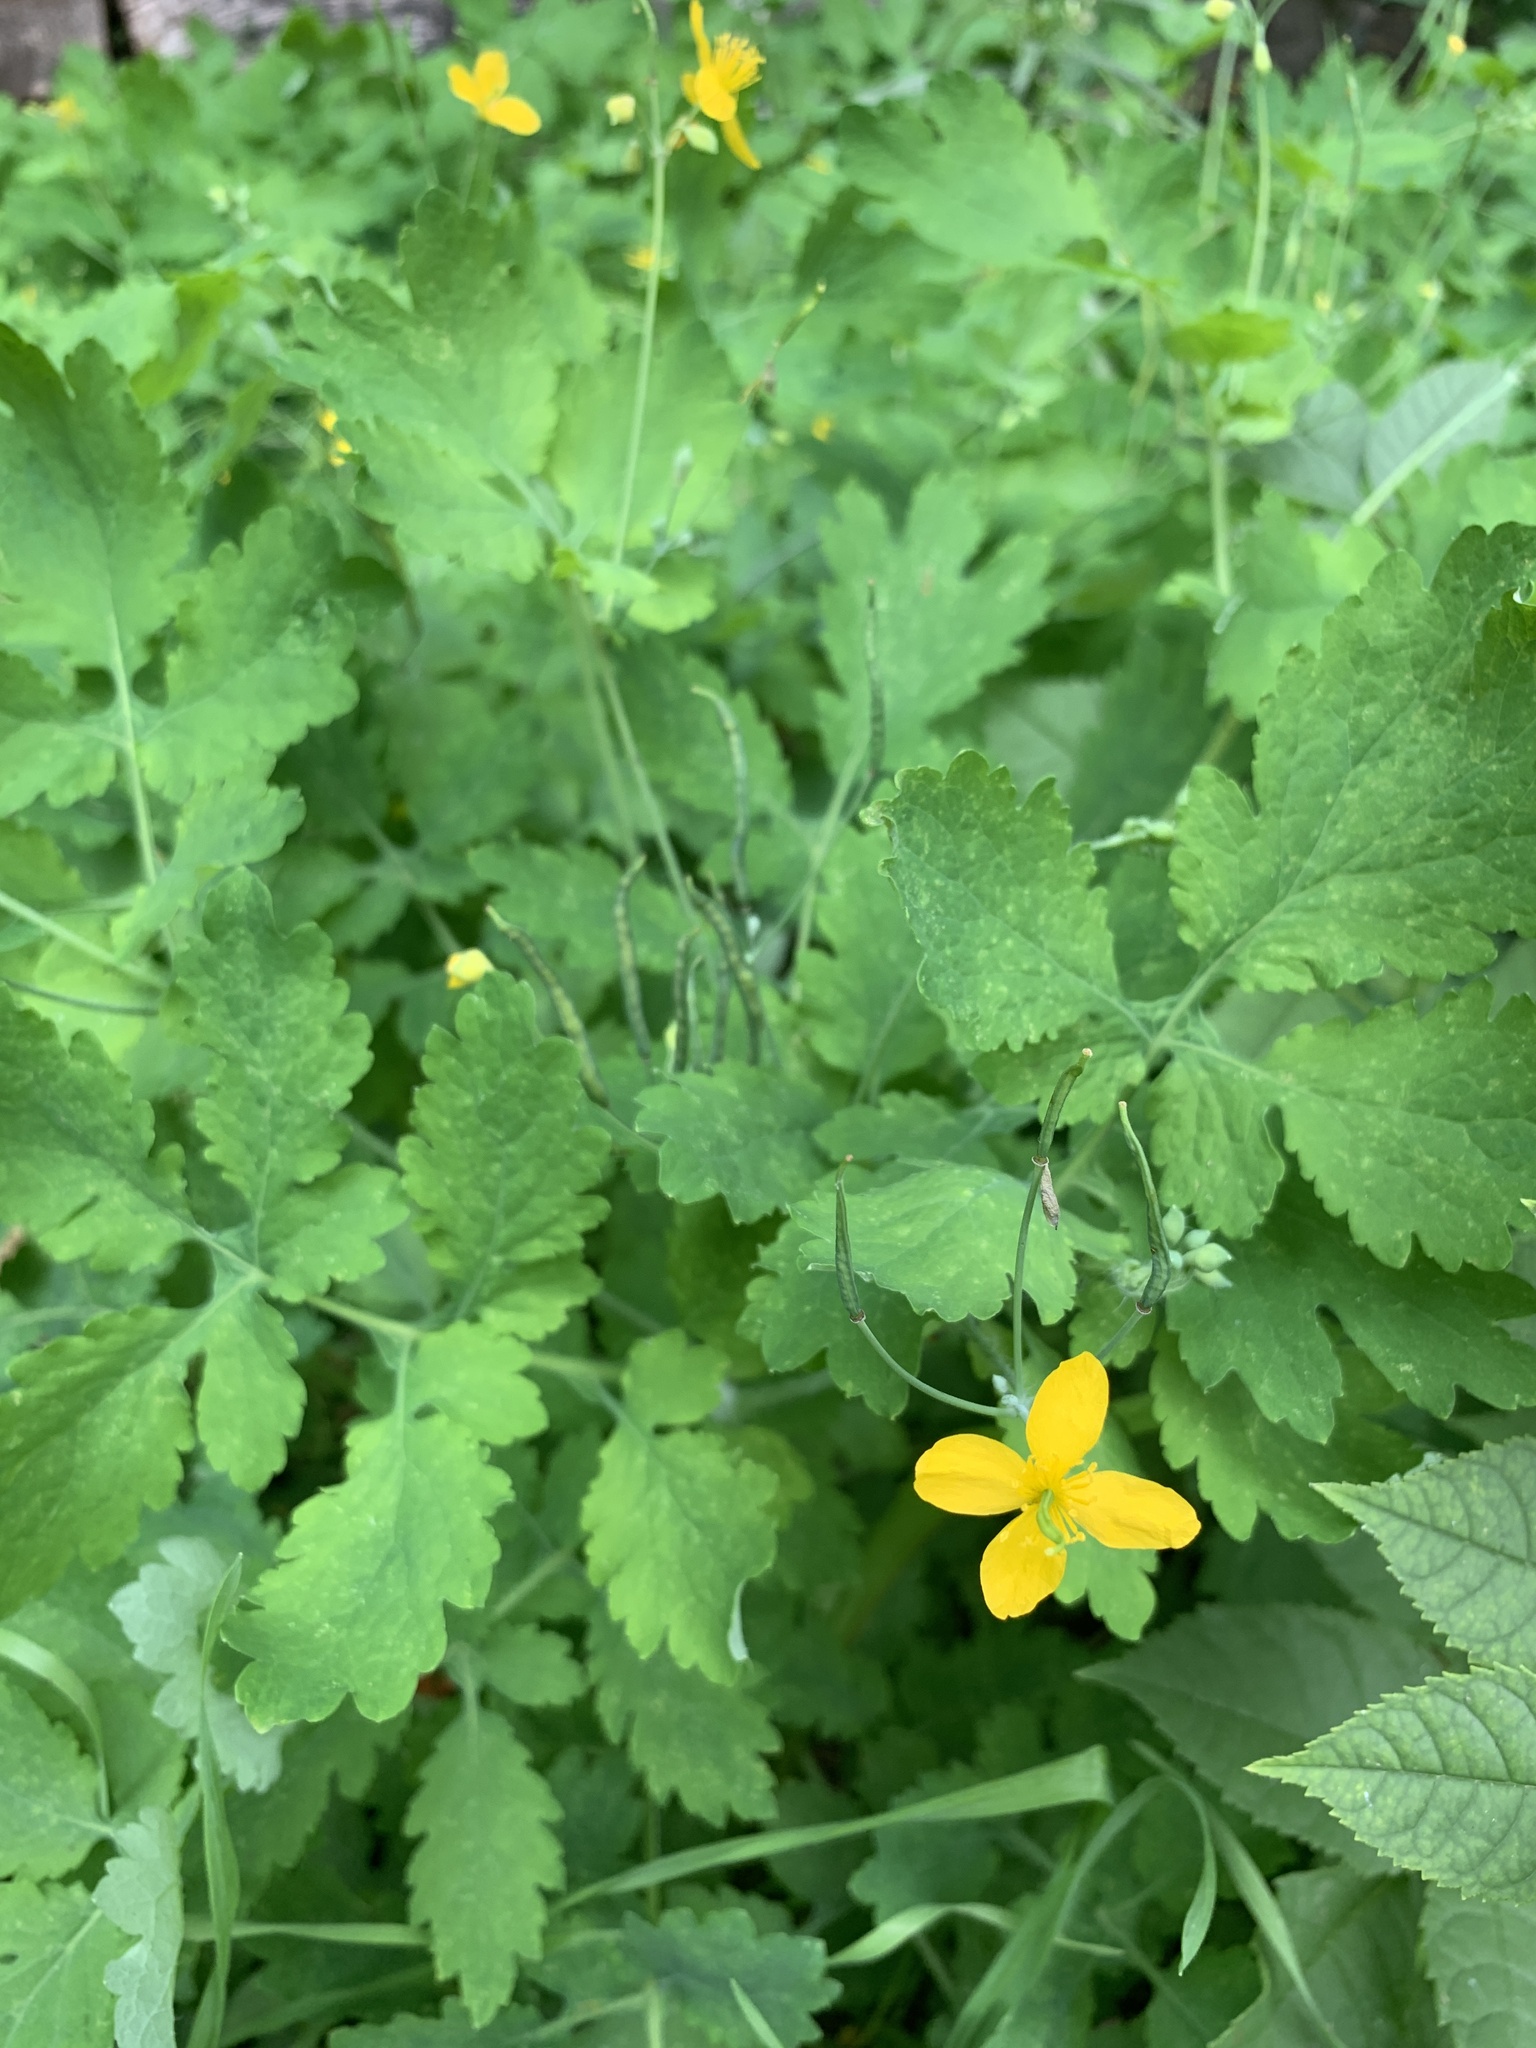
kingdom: Plantae
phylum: Tracheophyta
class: Magnoliopsida
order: Ranunculales
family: Papaveraceae
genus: Chelidonium
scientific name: Chelidonium majus
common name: Greater celandine
